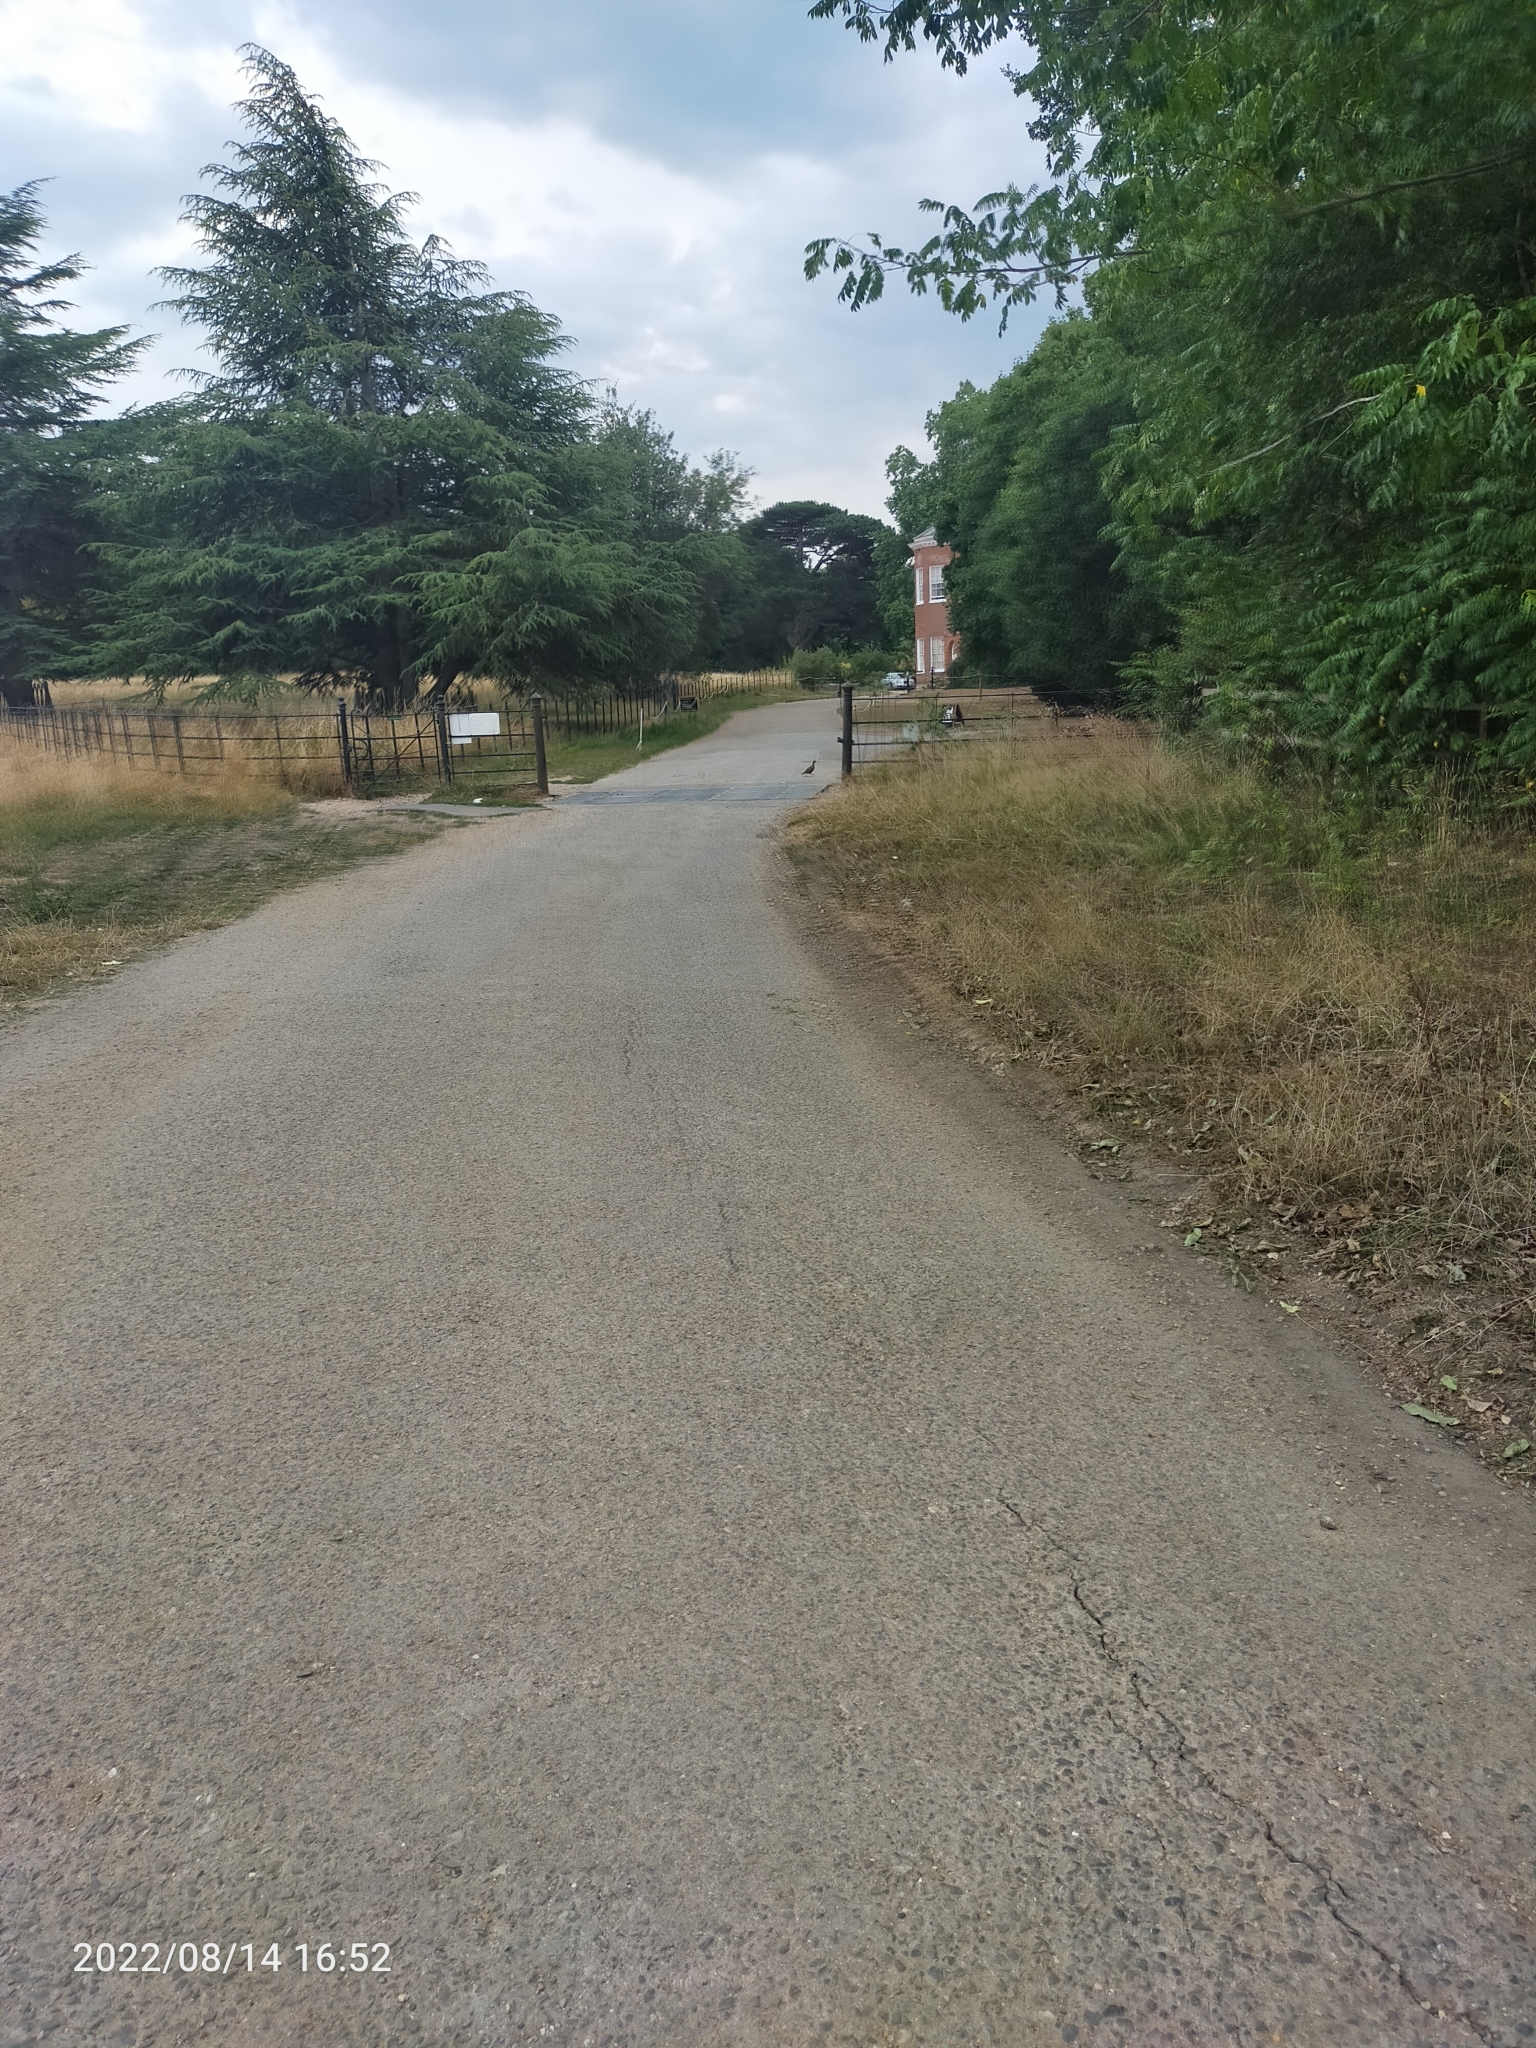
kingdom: Animalia
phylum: Chordata
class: Aves
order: Galliformes
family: Phasianidae
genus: Alectoris
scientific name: Alectoris rufa
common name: Red-legged partridge
